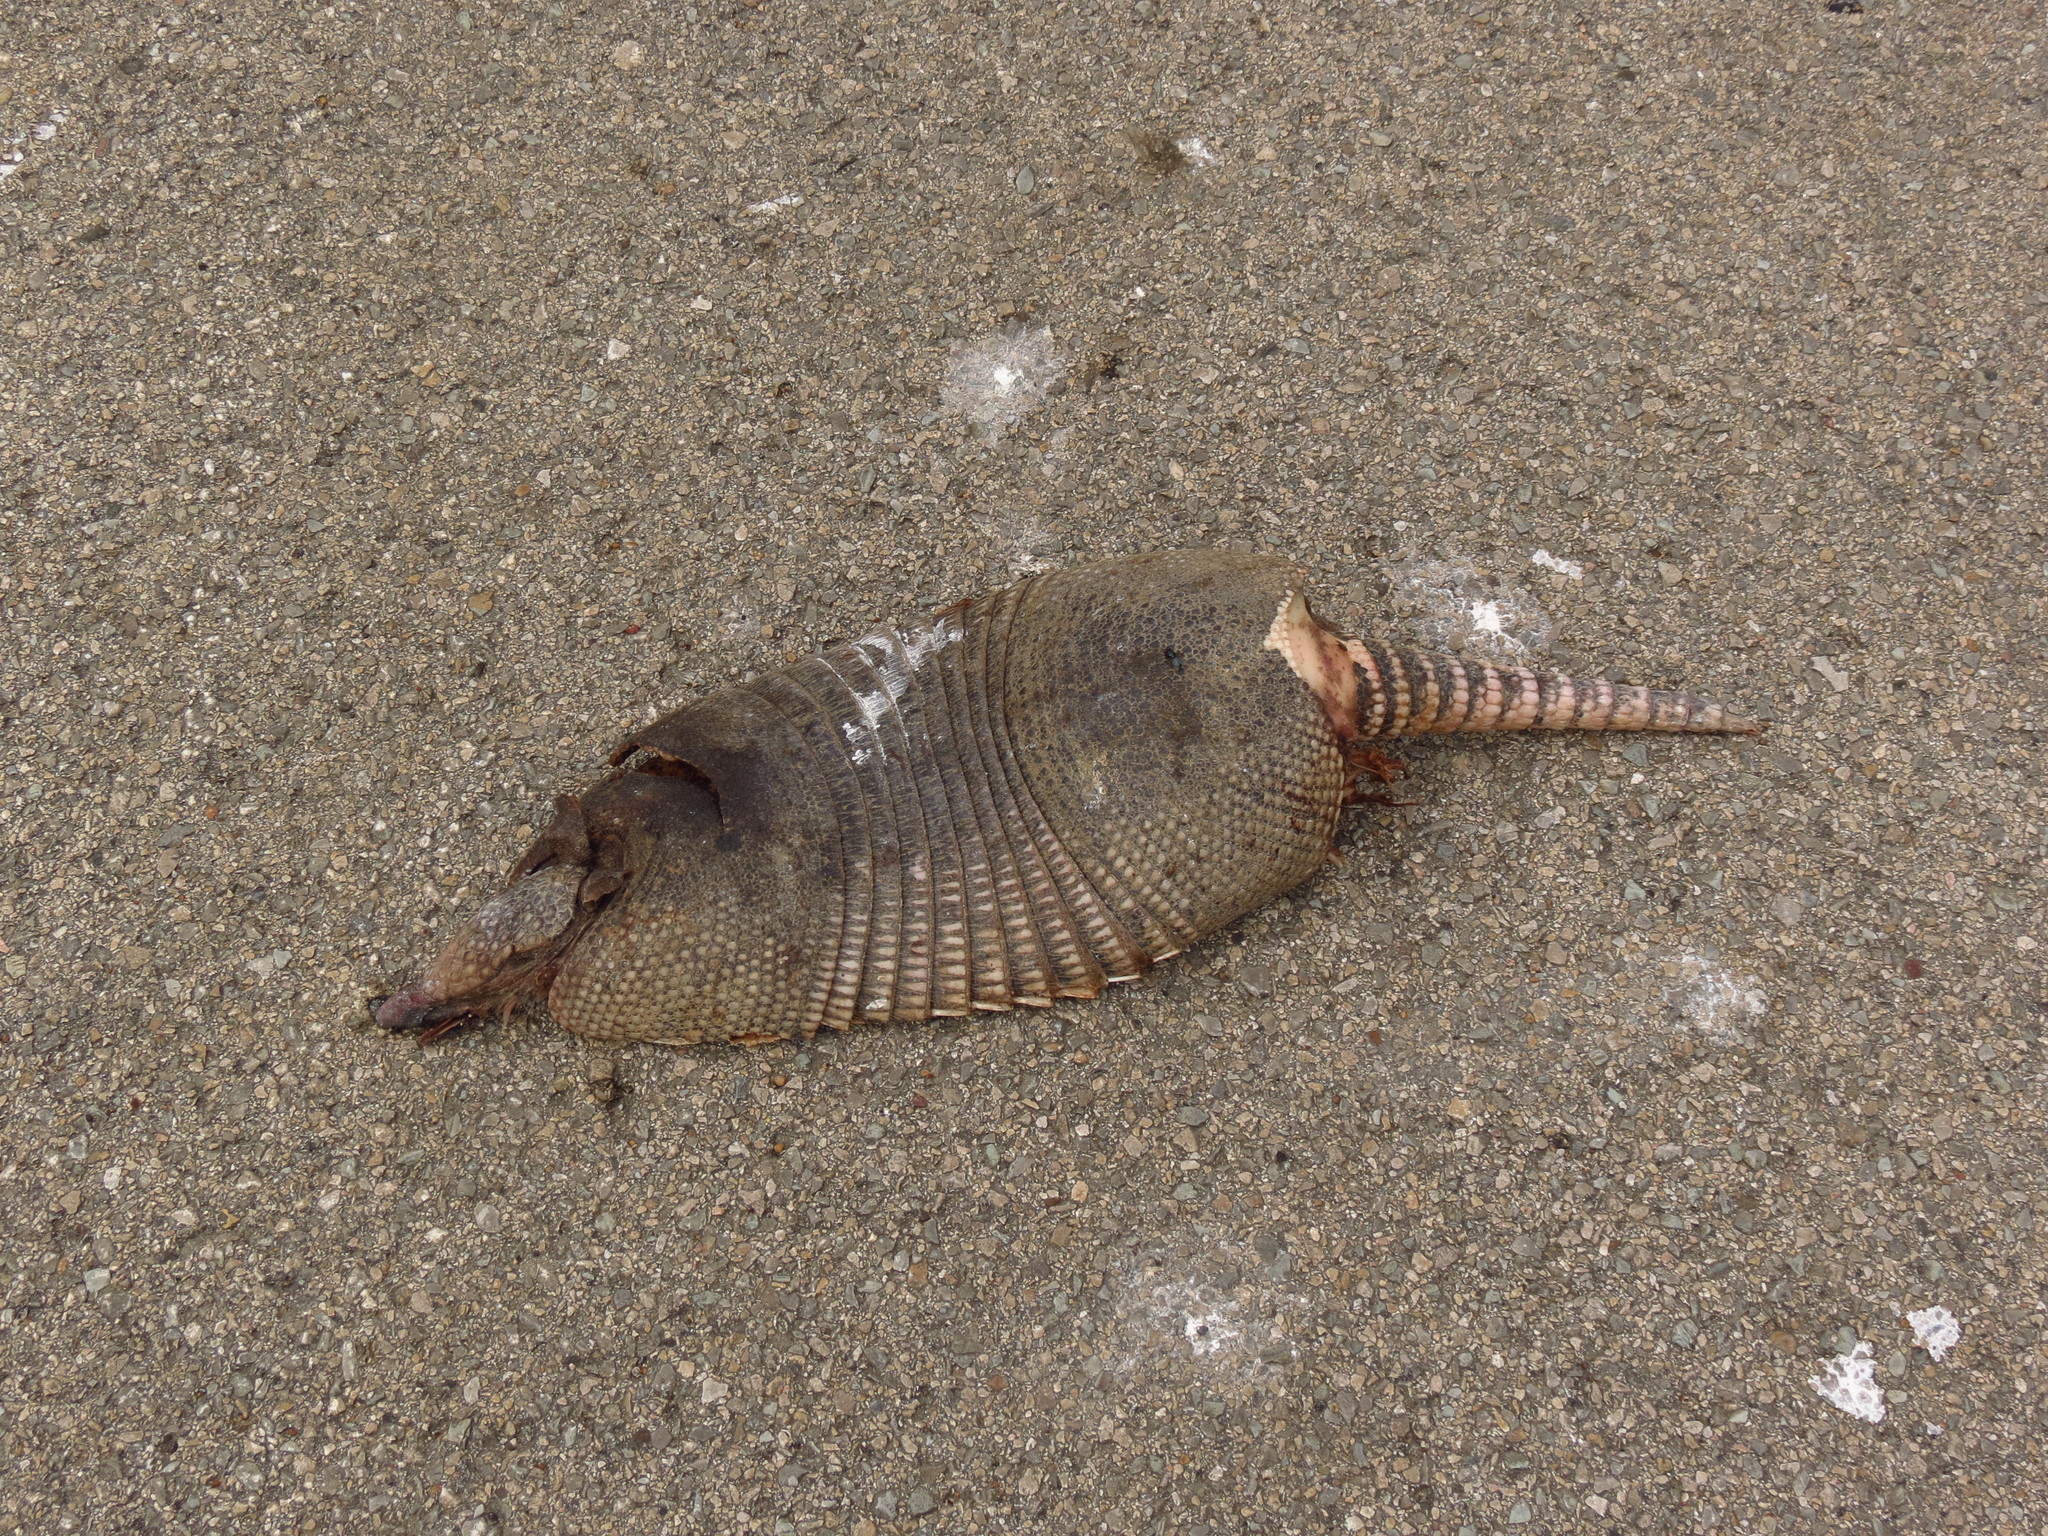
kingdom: Animalia
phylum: Chordata
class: Mammalia
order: Cingulata
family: Dasypodidae
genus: Dasypus
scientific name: Dasypus novemcinctus
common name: Nine-banded armadillo
